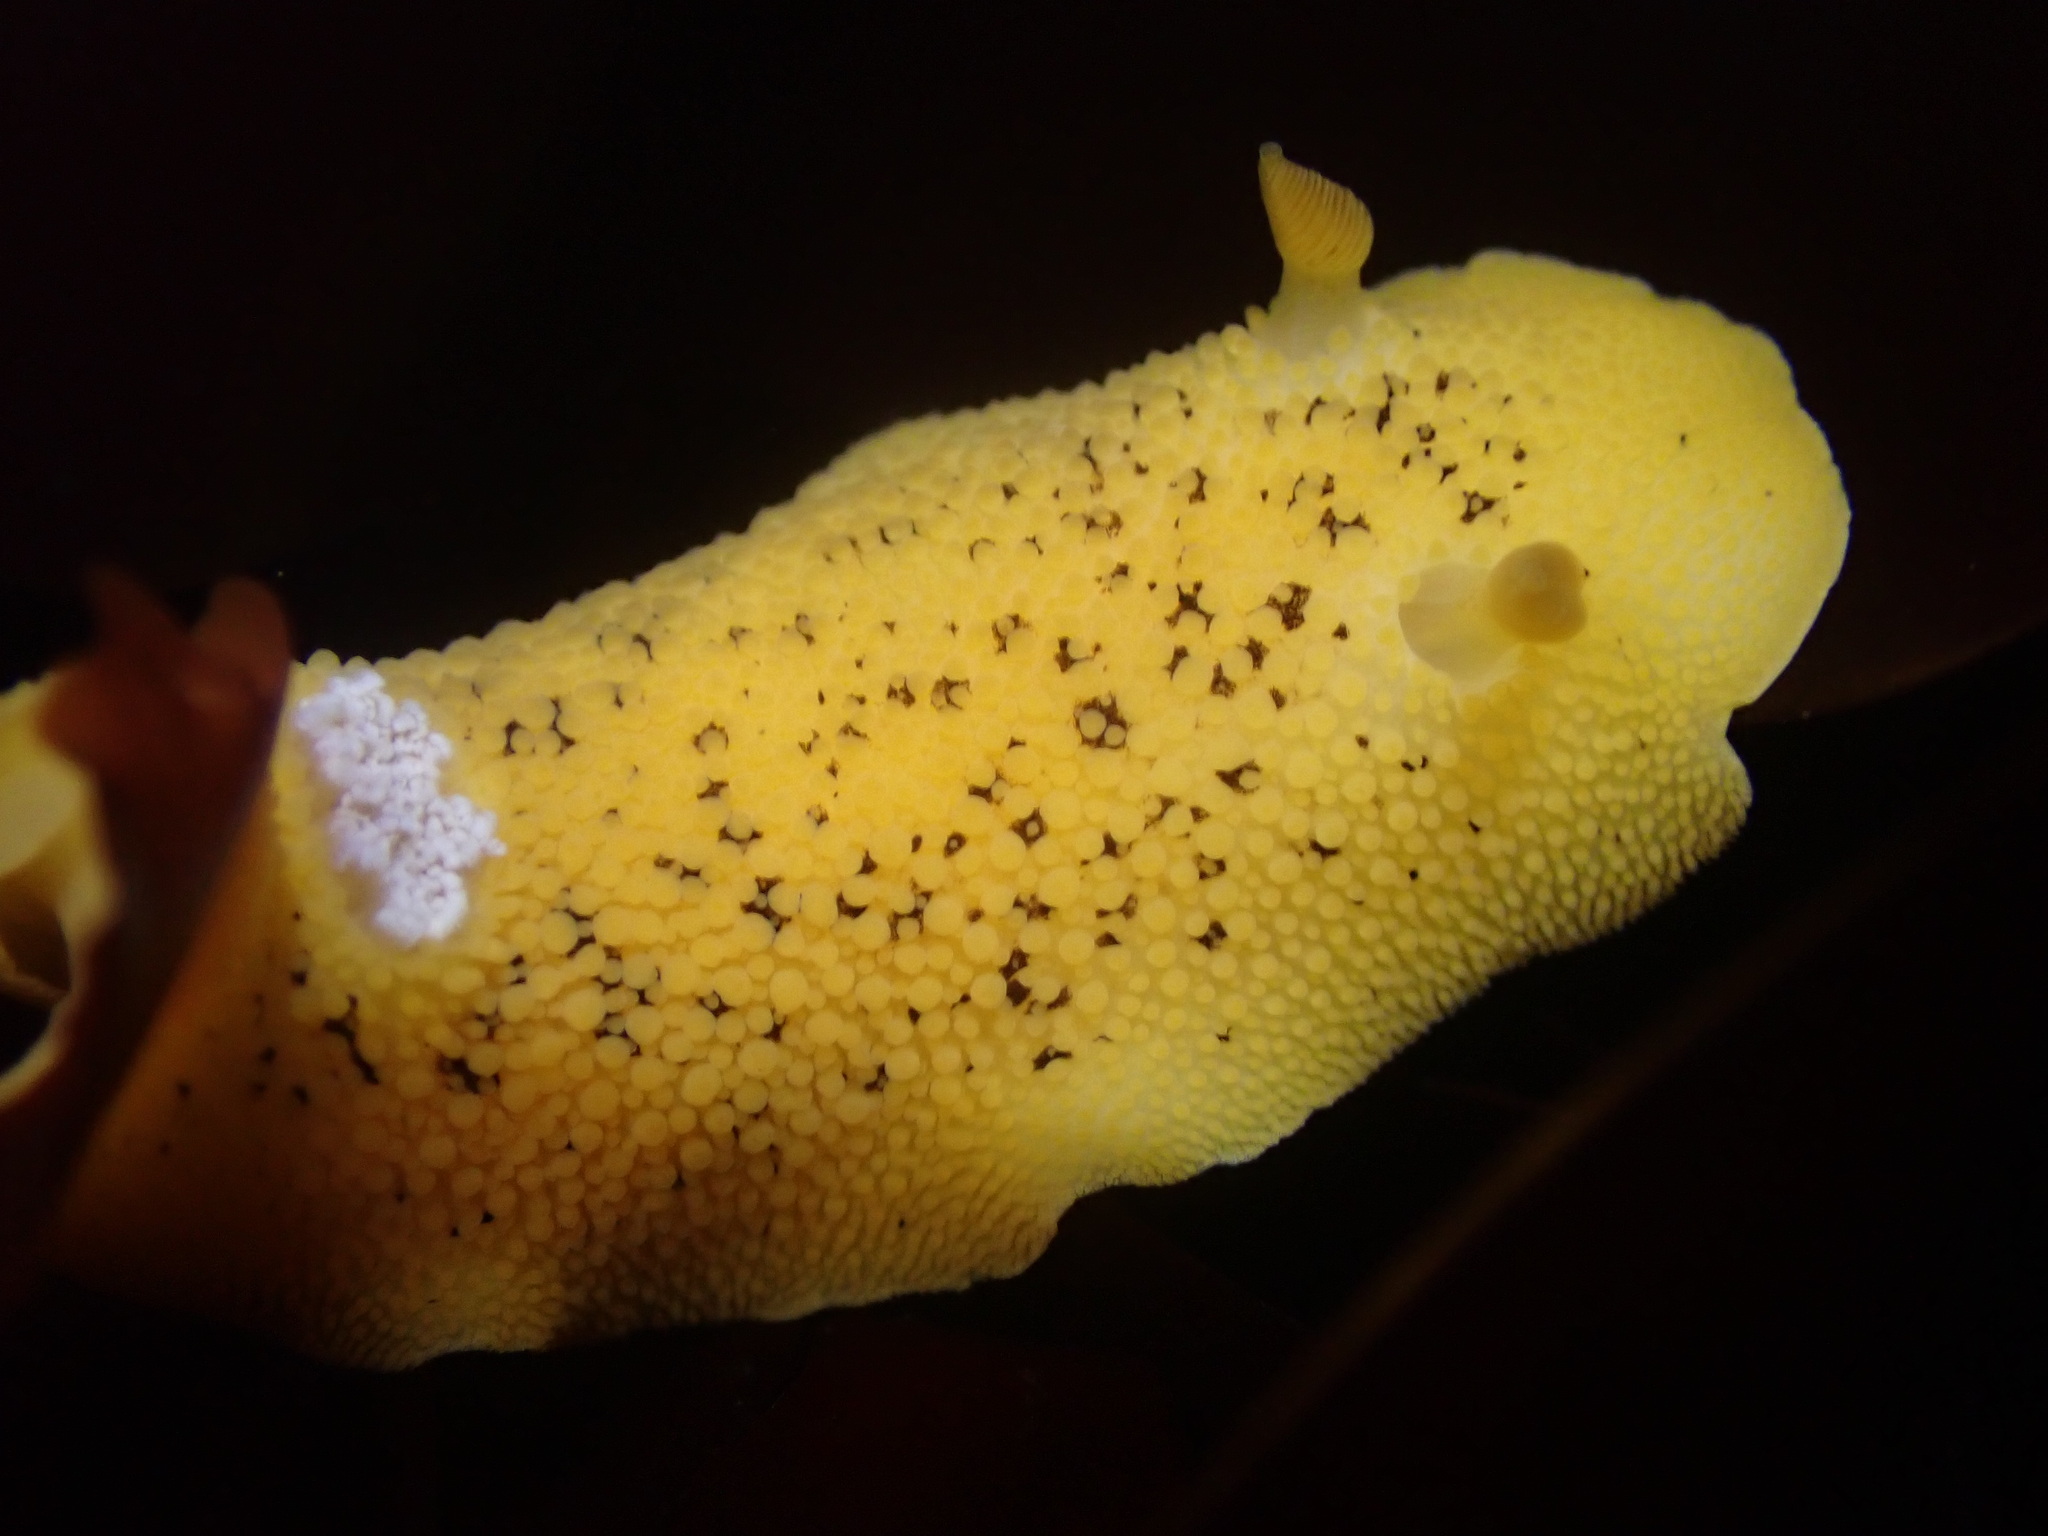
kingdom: Animalia
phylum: Mollusca
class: Gastropoda
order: Nudibranchia
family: Discodorididae
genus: Peltodoris
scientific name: Peltodoris nobilis
